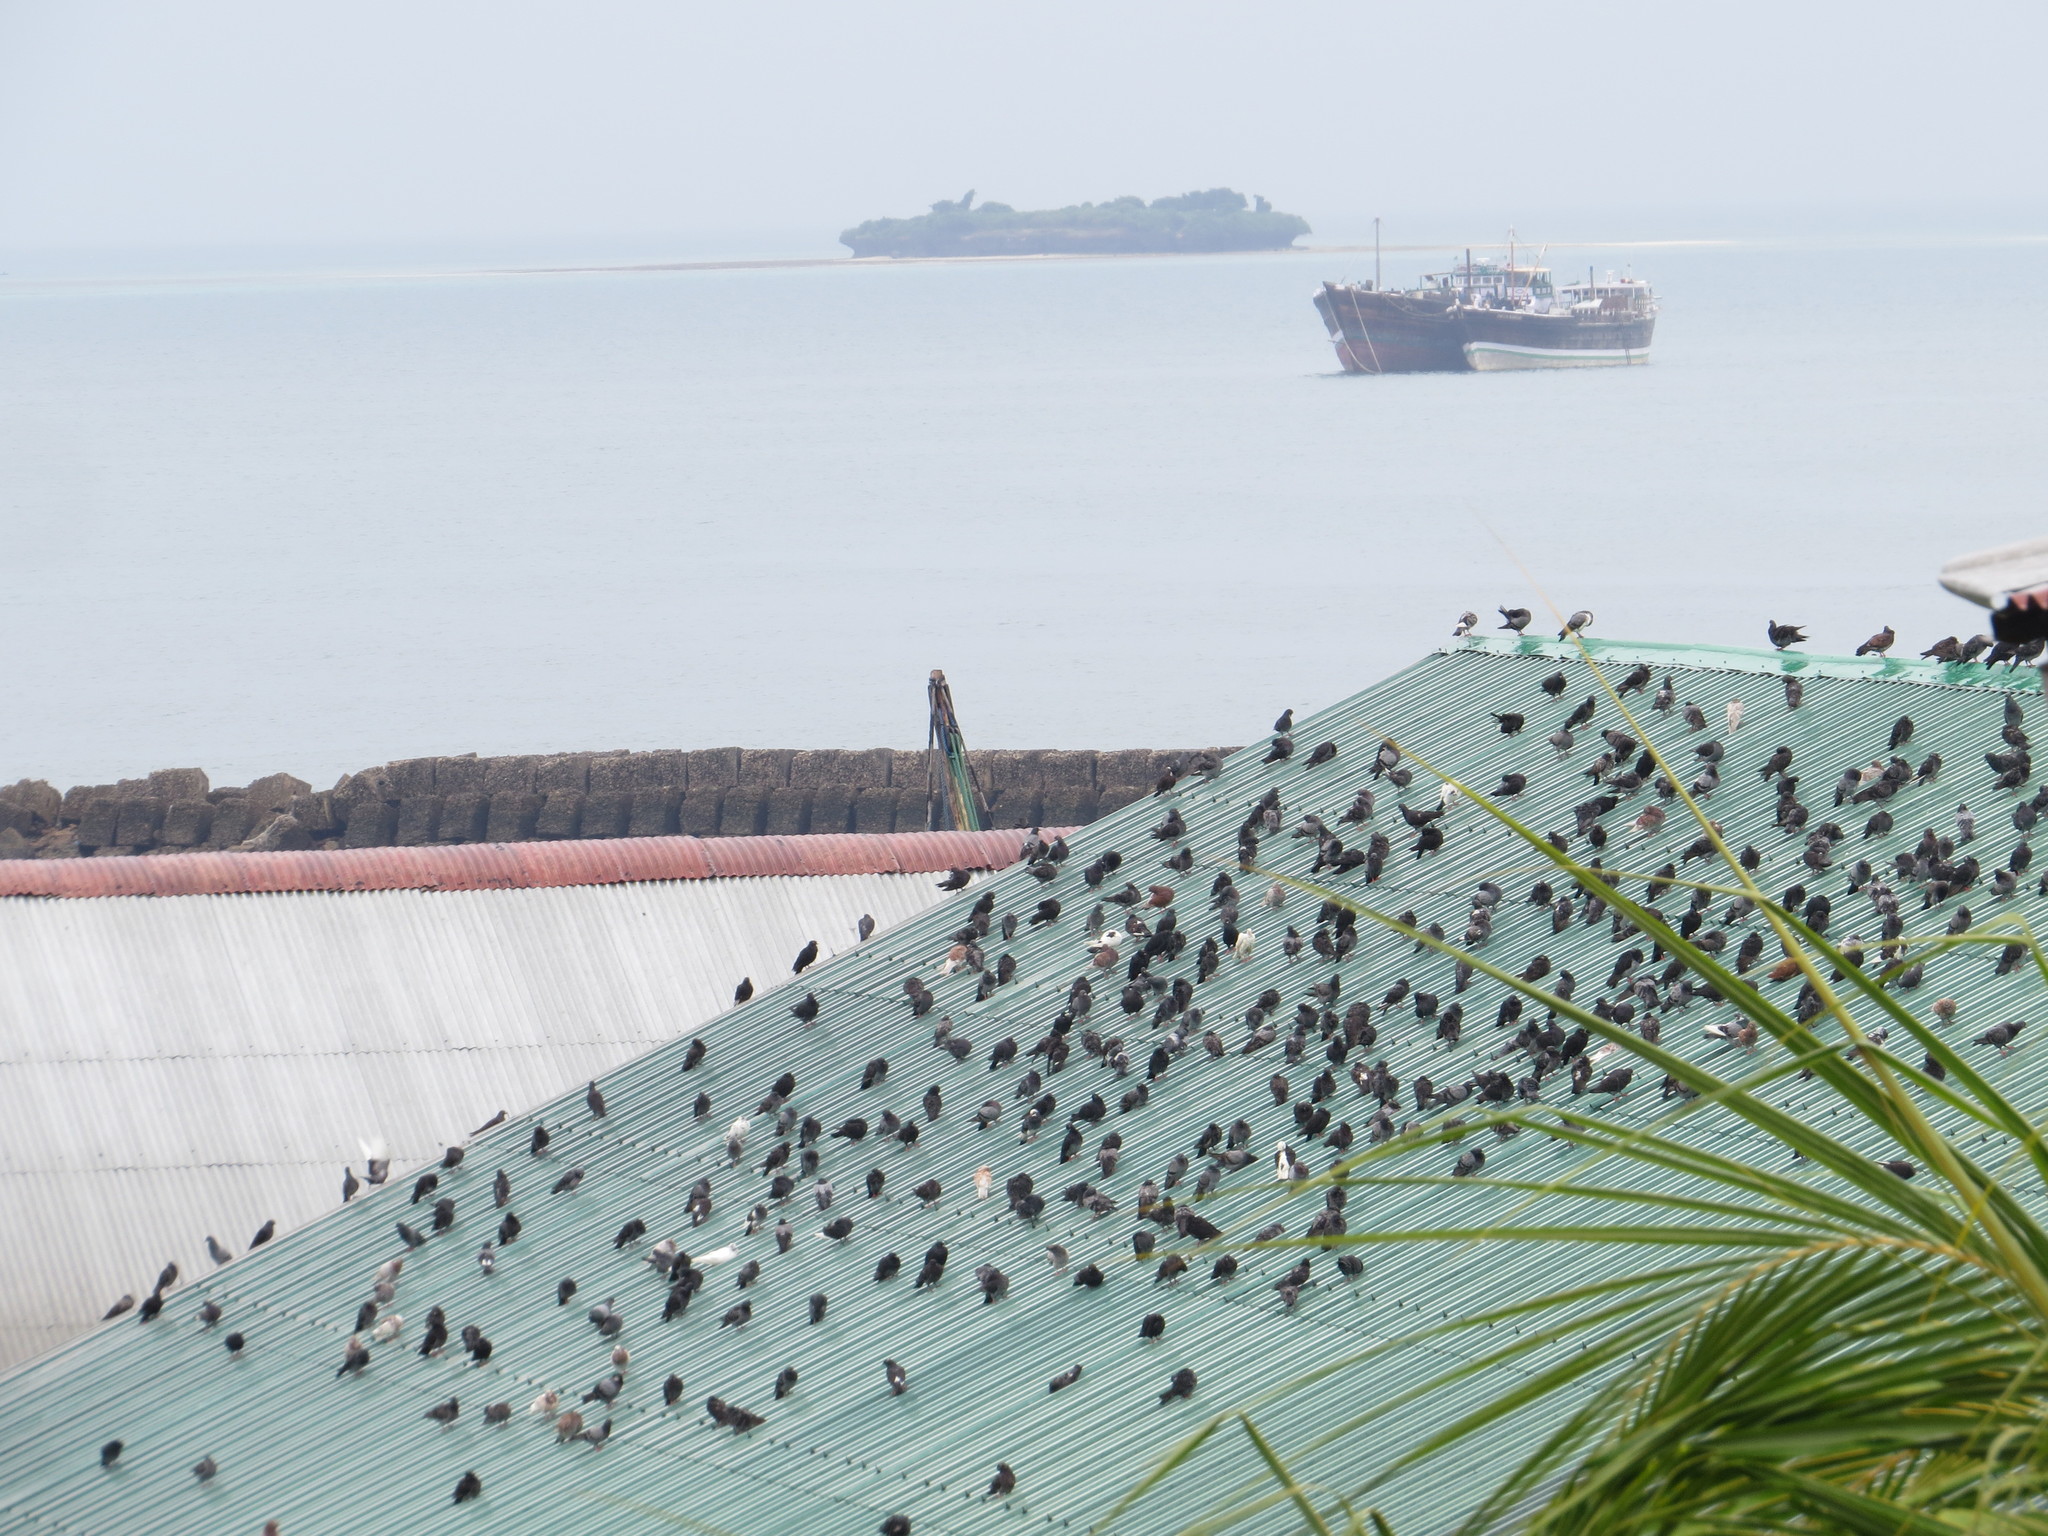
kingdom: Animalia
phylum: Chordata
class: Aves
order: Columbiformes
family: Columbidae
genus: Columba
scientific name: Columba livia
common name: Rock pigeon
